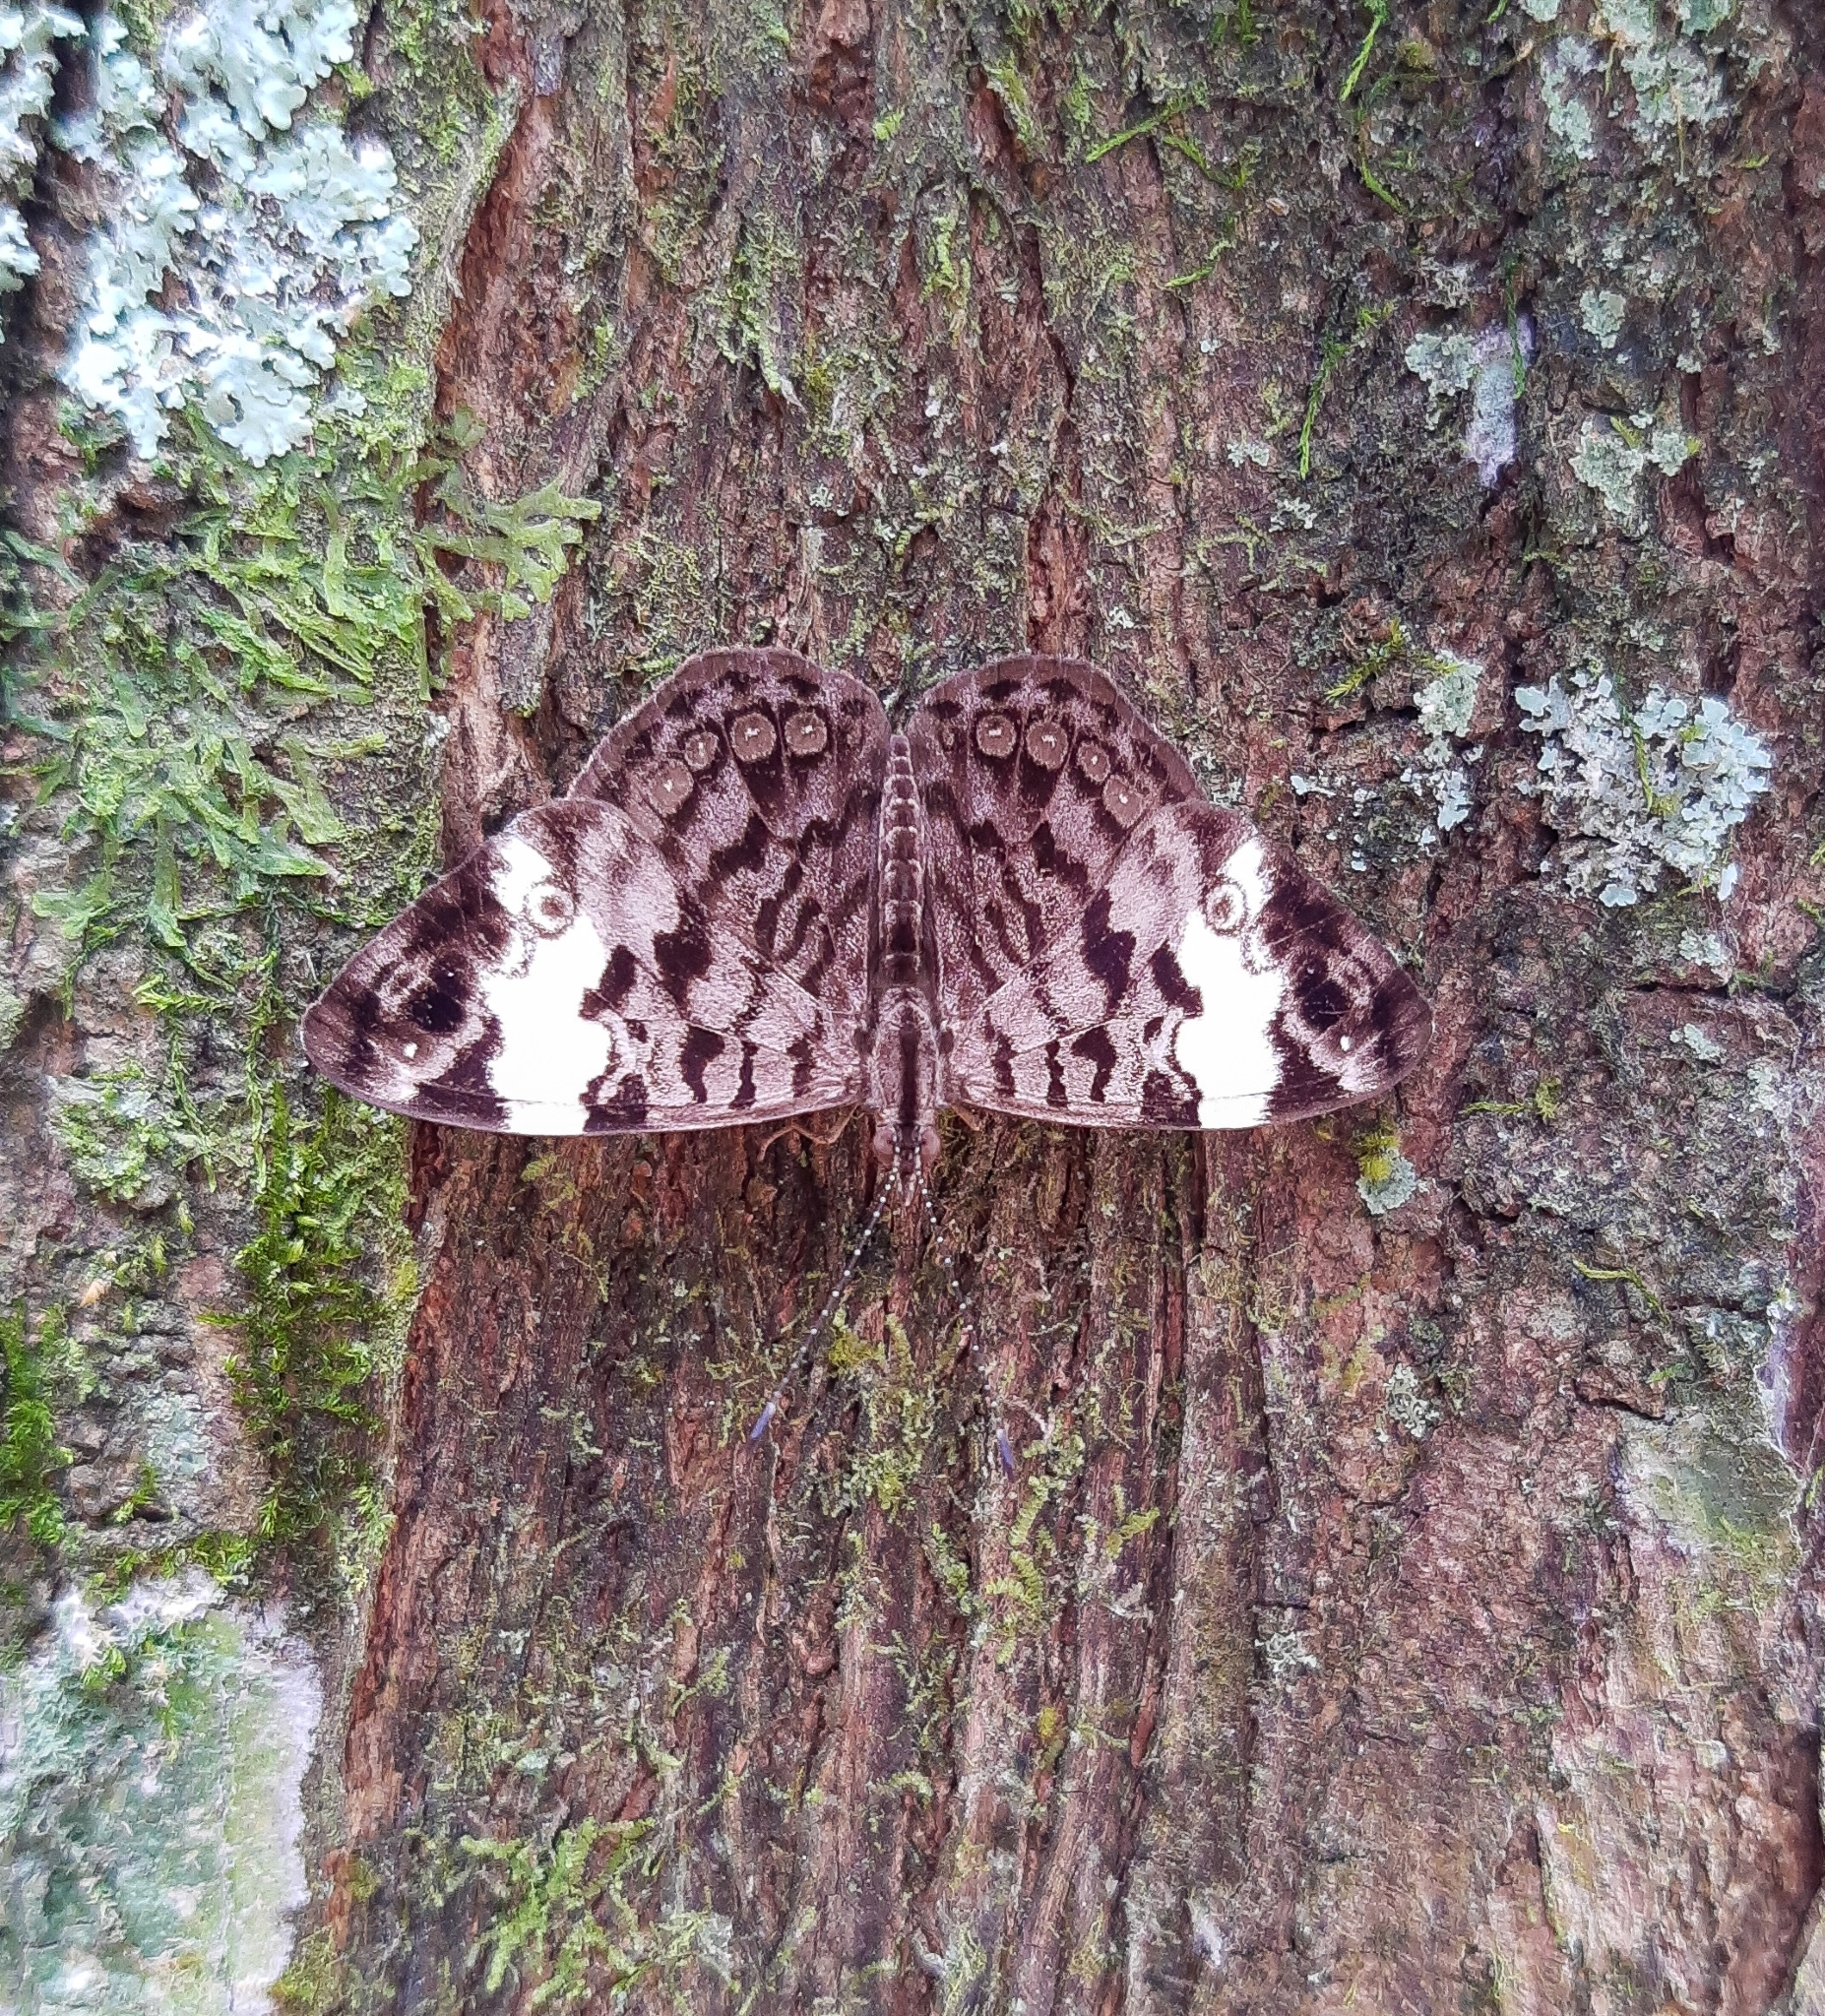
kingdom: Animalia
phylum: Arthropoda
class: Insecta
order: Lepidoptera
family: Nymphalidae
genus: Ectima
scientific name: Ectima thecla
